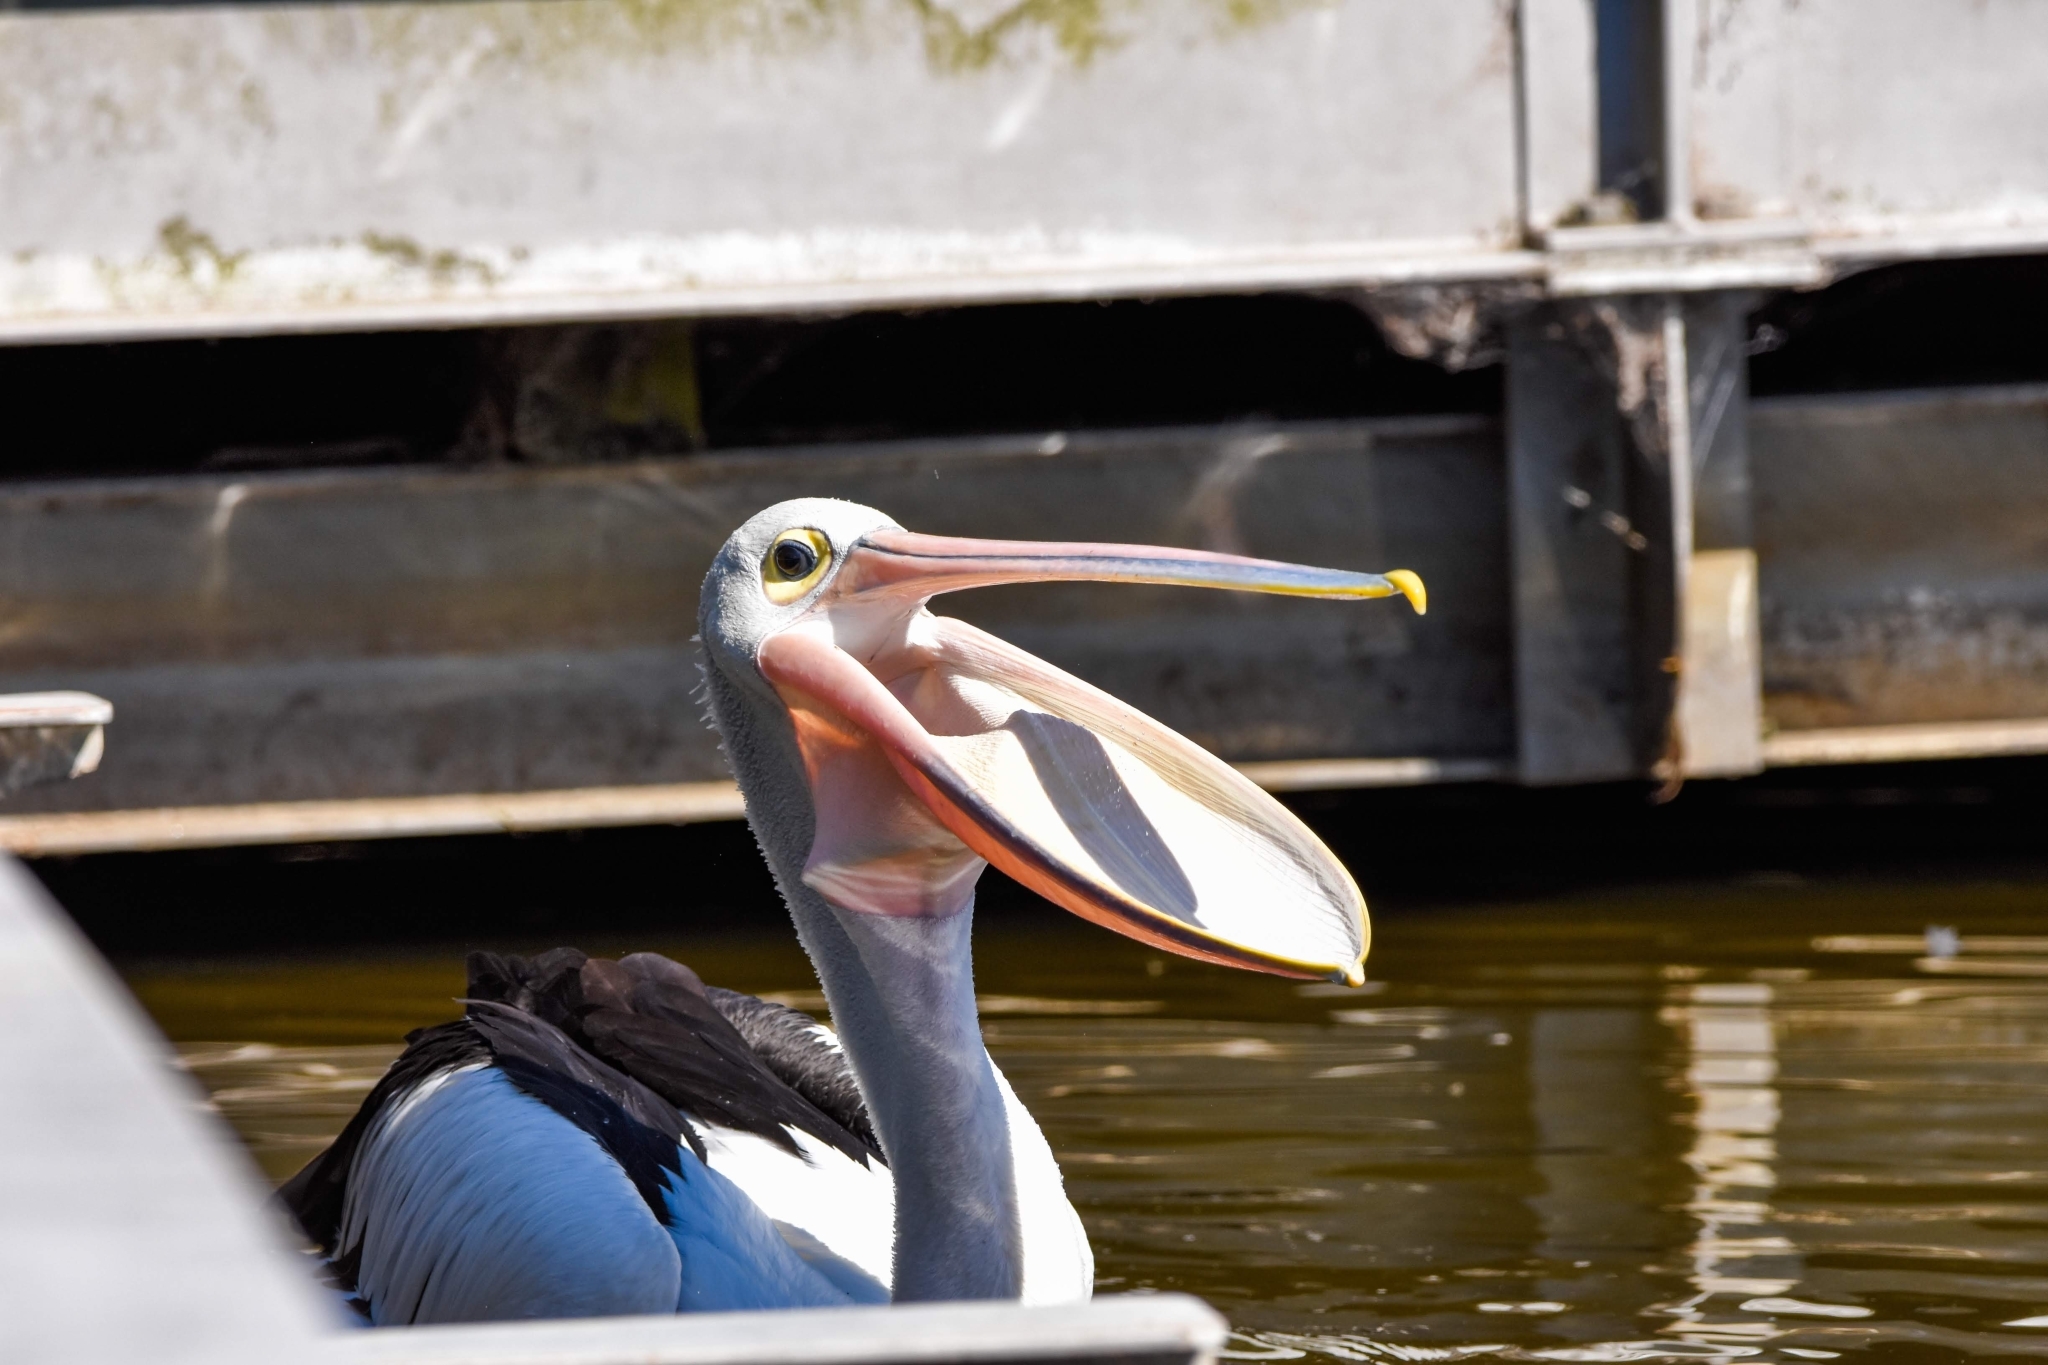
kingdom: Animalia
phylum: Chordata
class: Aves
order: Pelecaniformes
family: Pelecanidae
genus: Pelecanus
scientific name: Pelecanus conspicillatus
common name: Australian pelican
